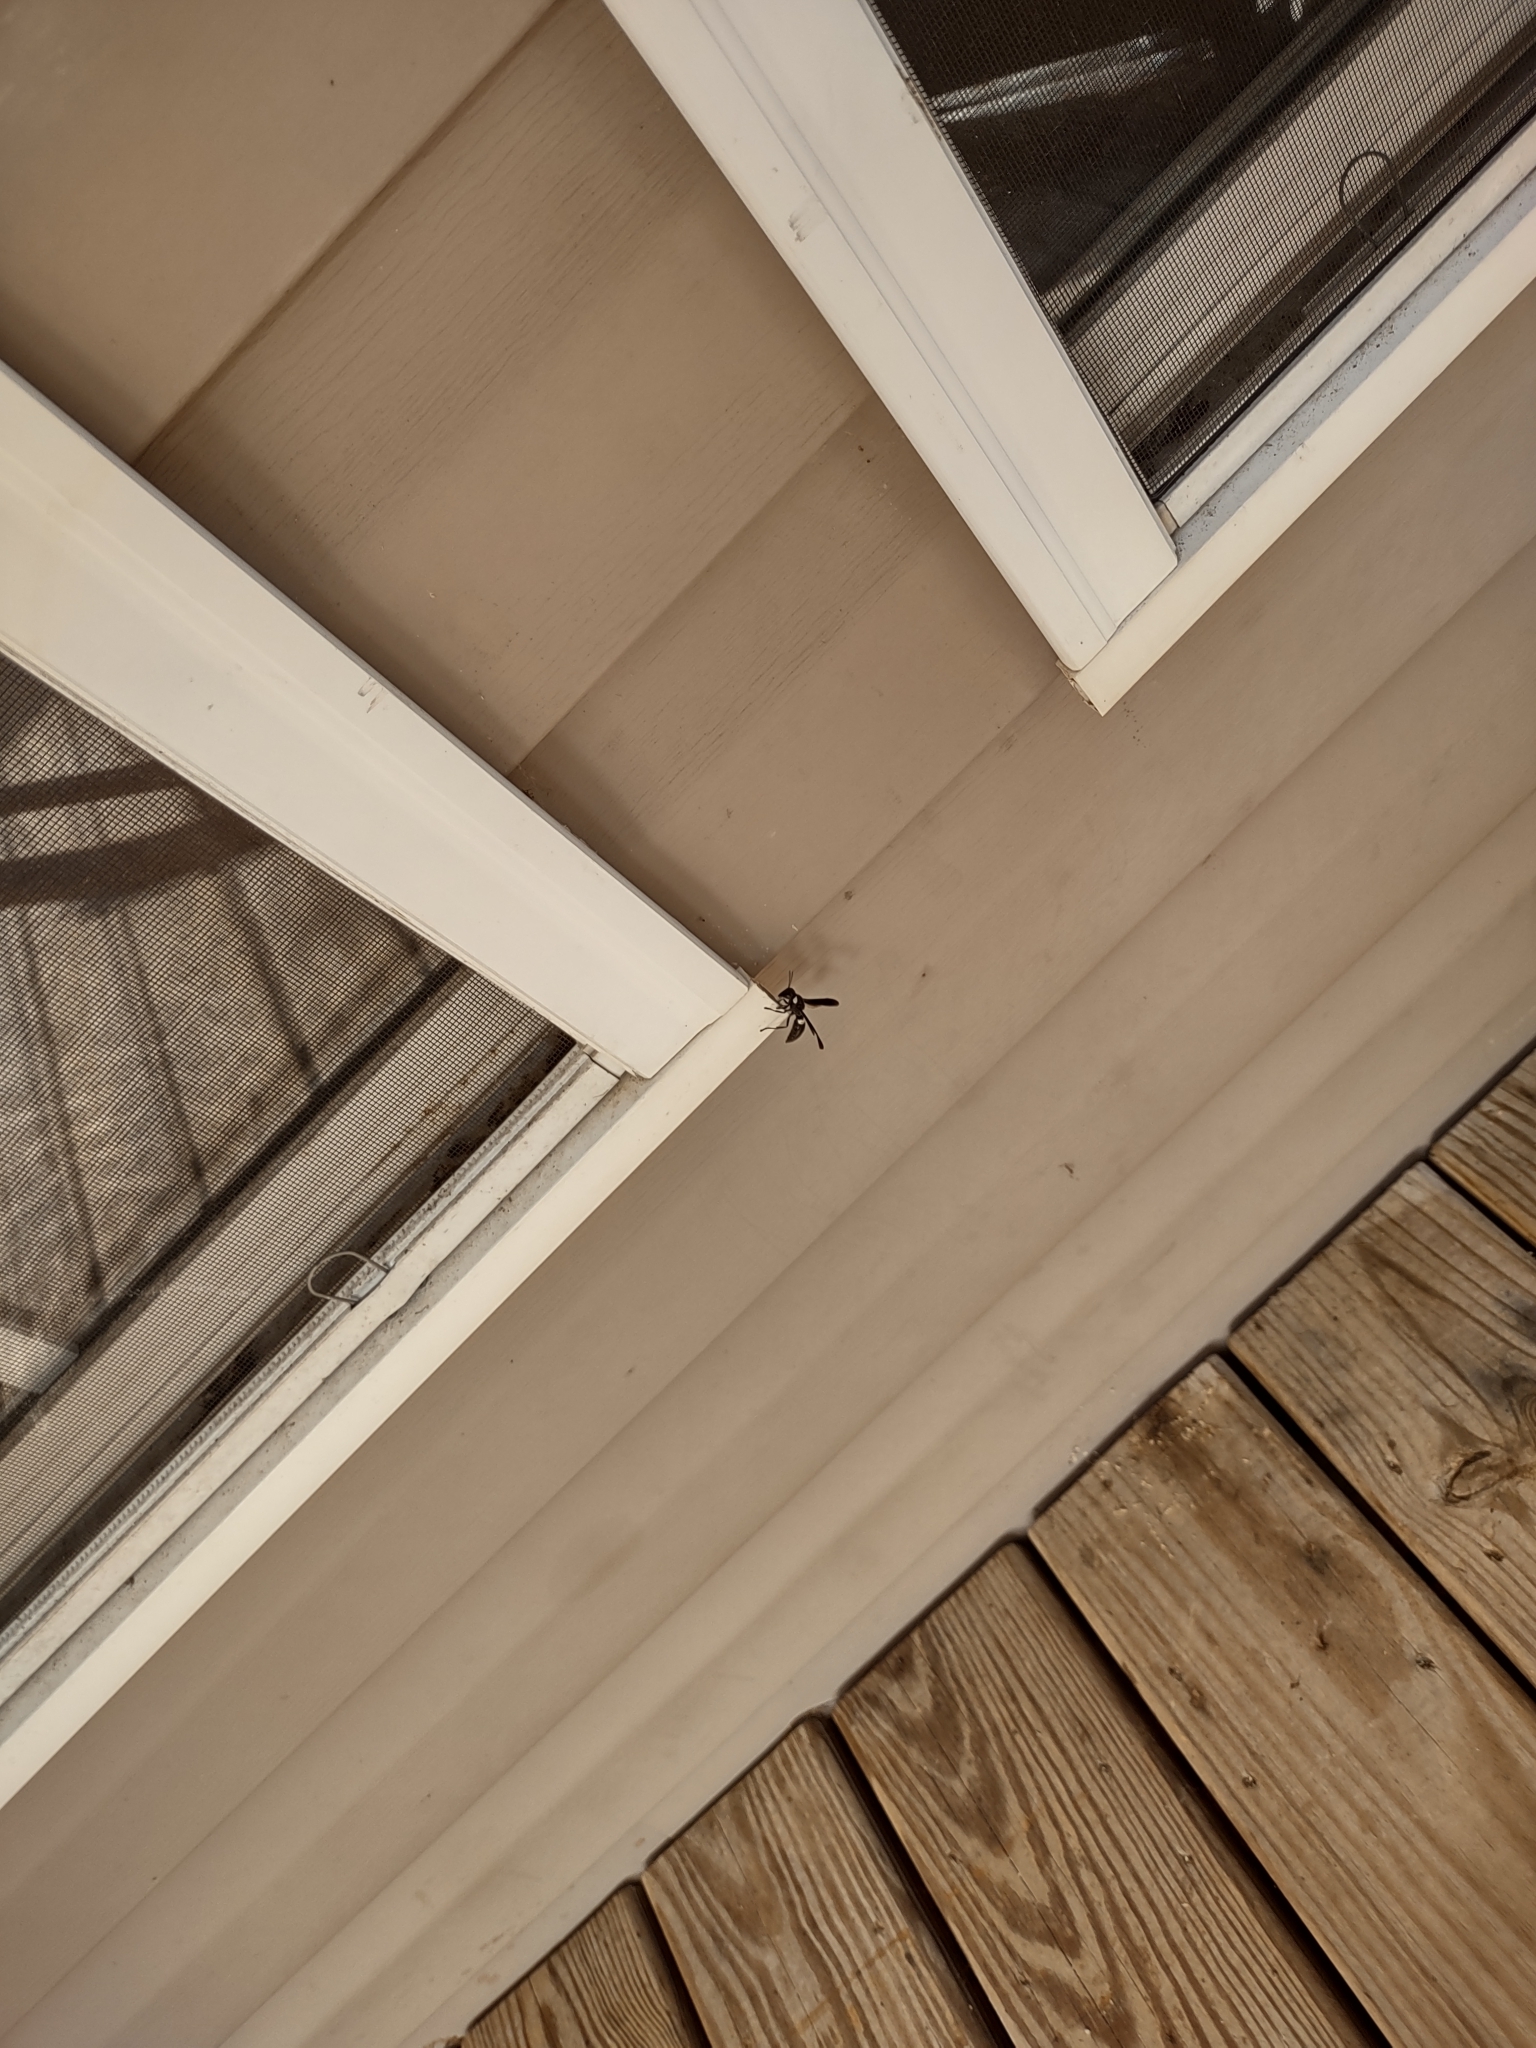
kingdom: Animalia
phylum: Arthropoda
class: Insecta
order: Hymenoptera
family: Eumenidae
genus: Monobia
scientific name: Monobia quadridens
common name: Four-toothed mason wasp
